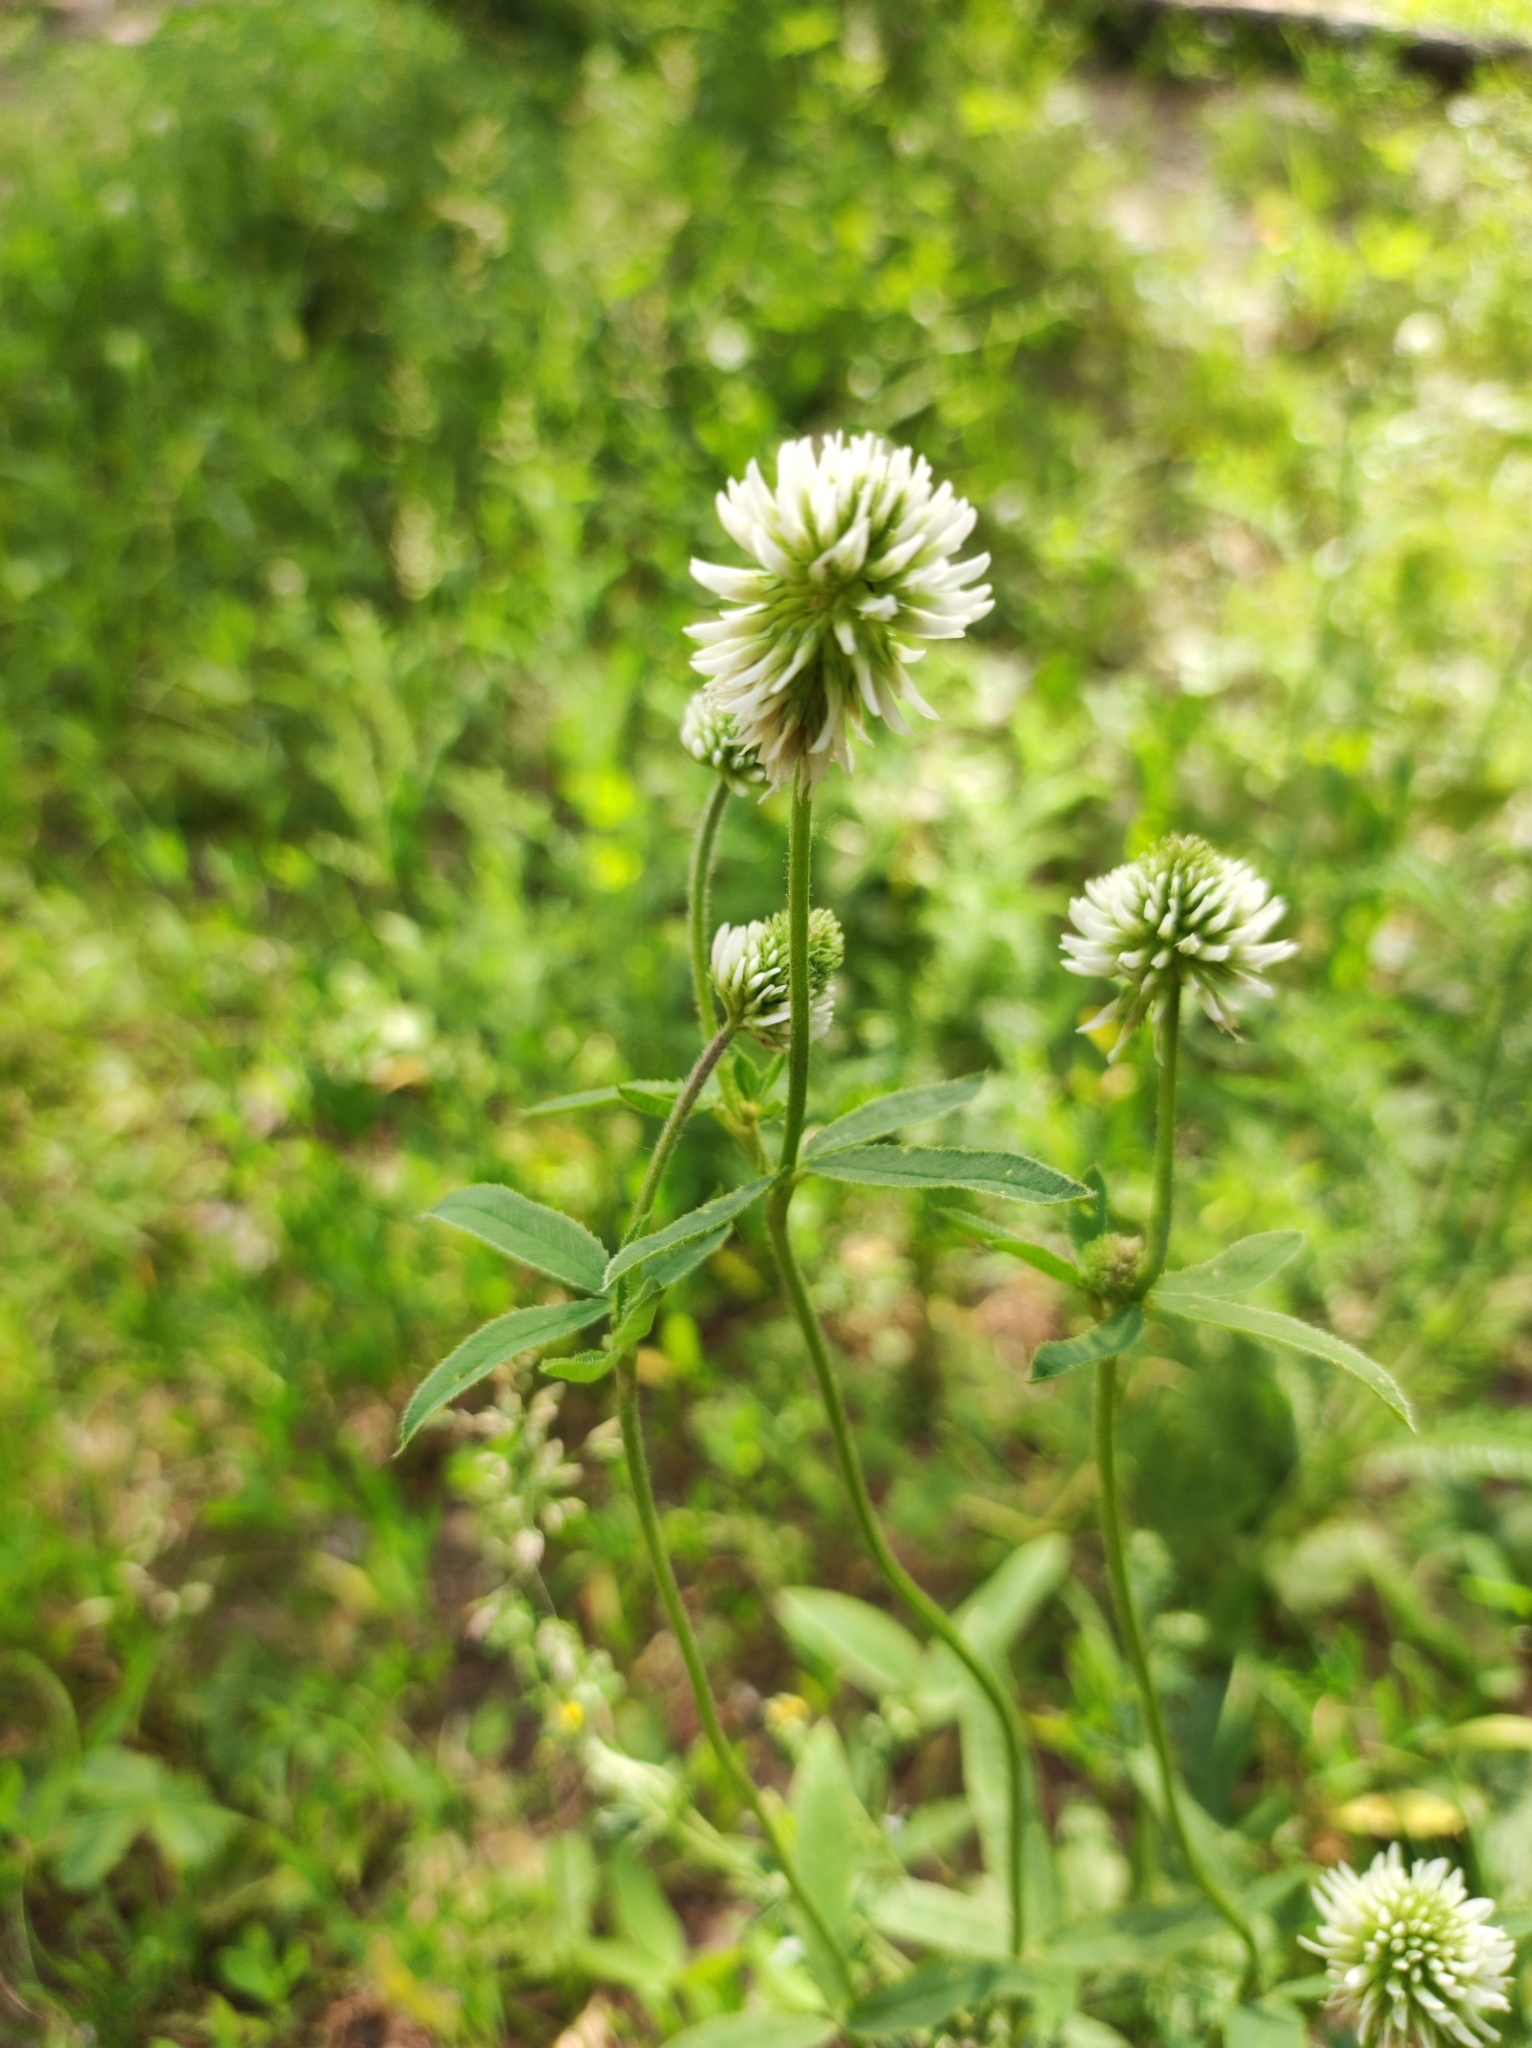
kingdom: Plantae
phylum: Tracheophyta
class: Magnoliopsida
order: Fabales
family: Fabaceae
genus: Trifolium
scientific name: Trifolium montanum
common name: Mountain clover
